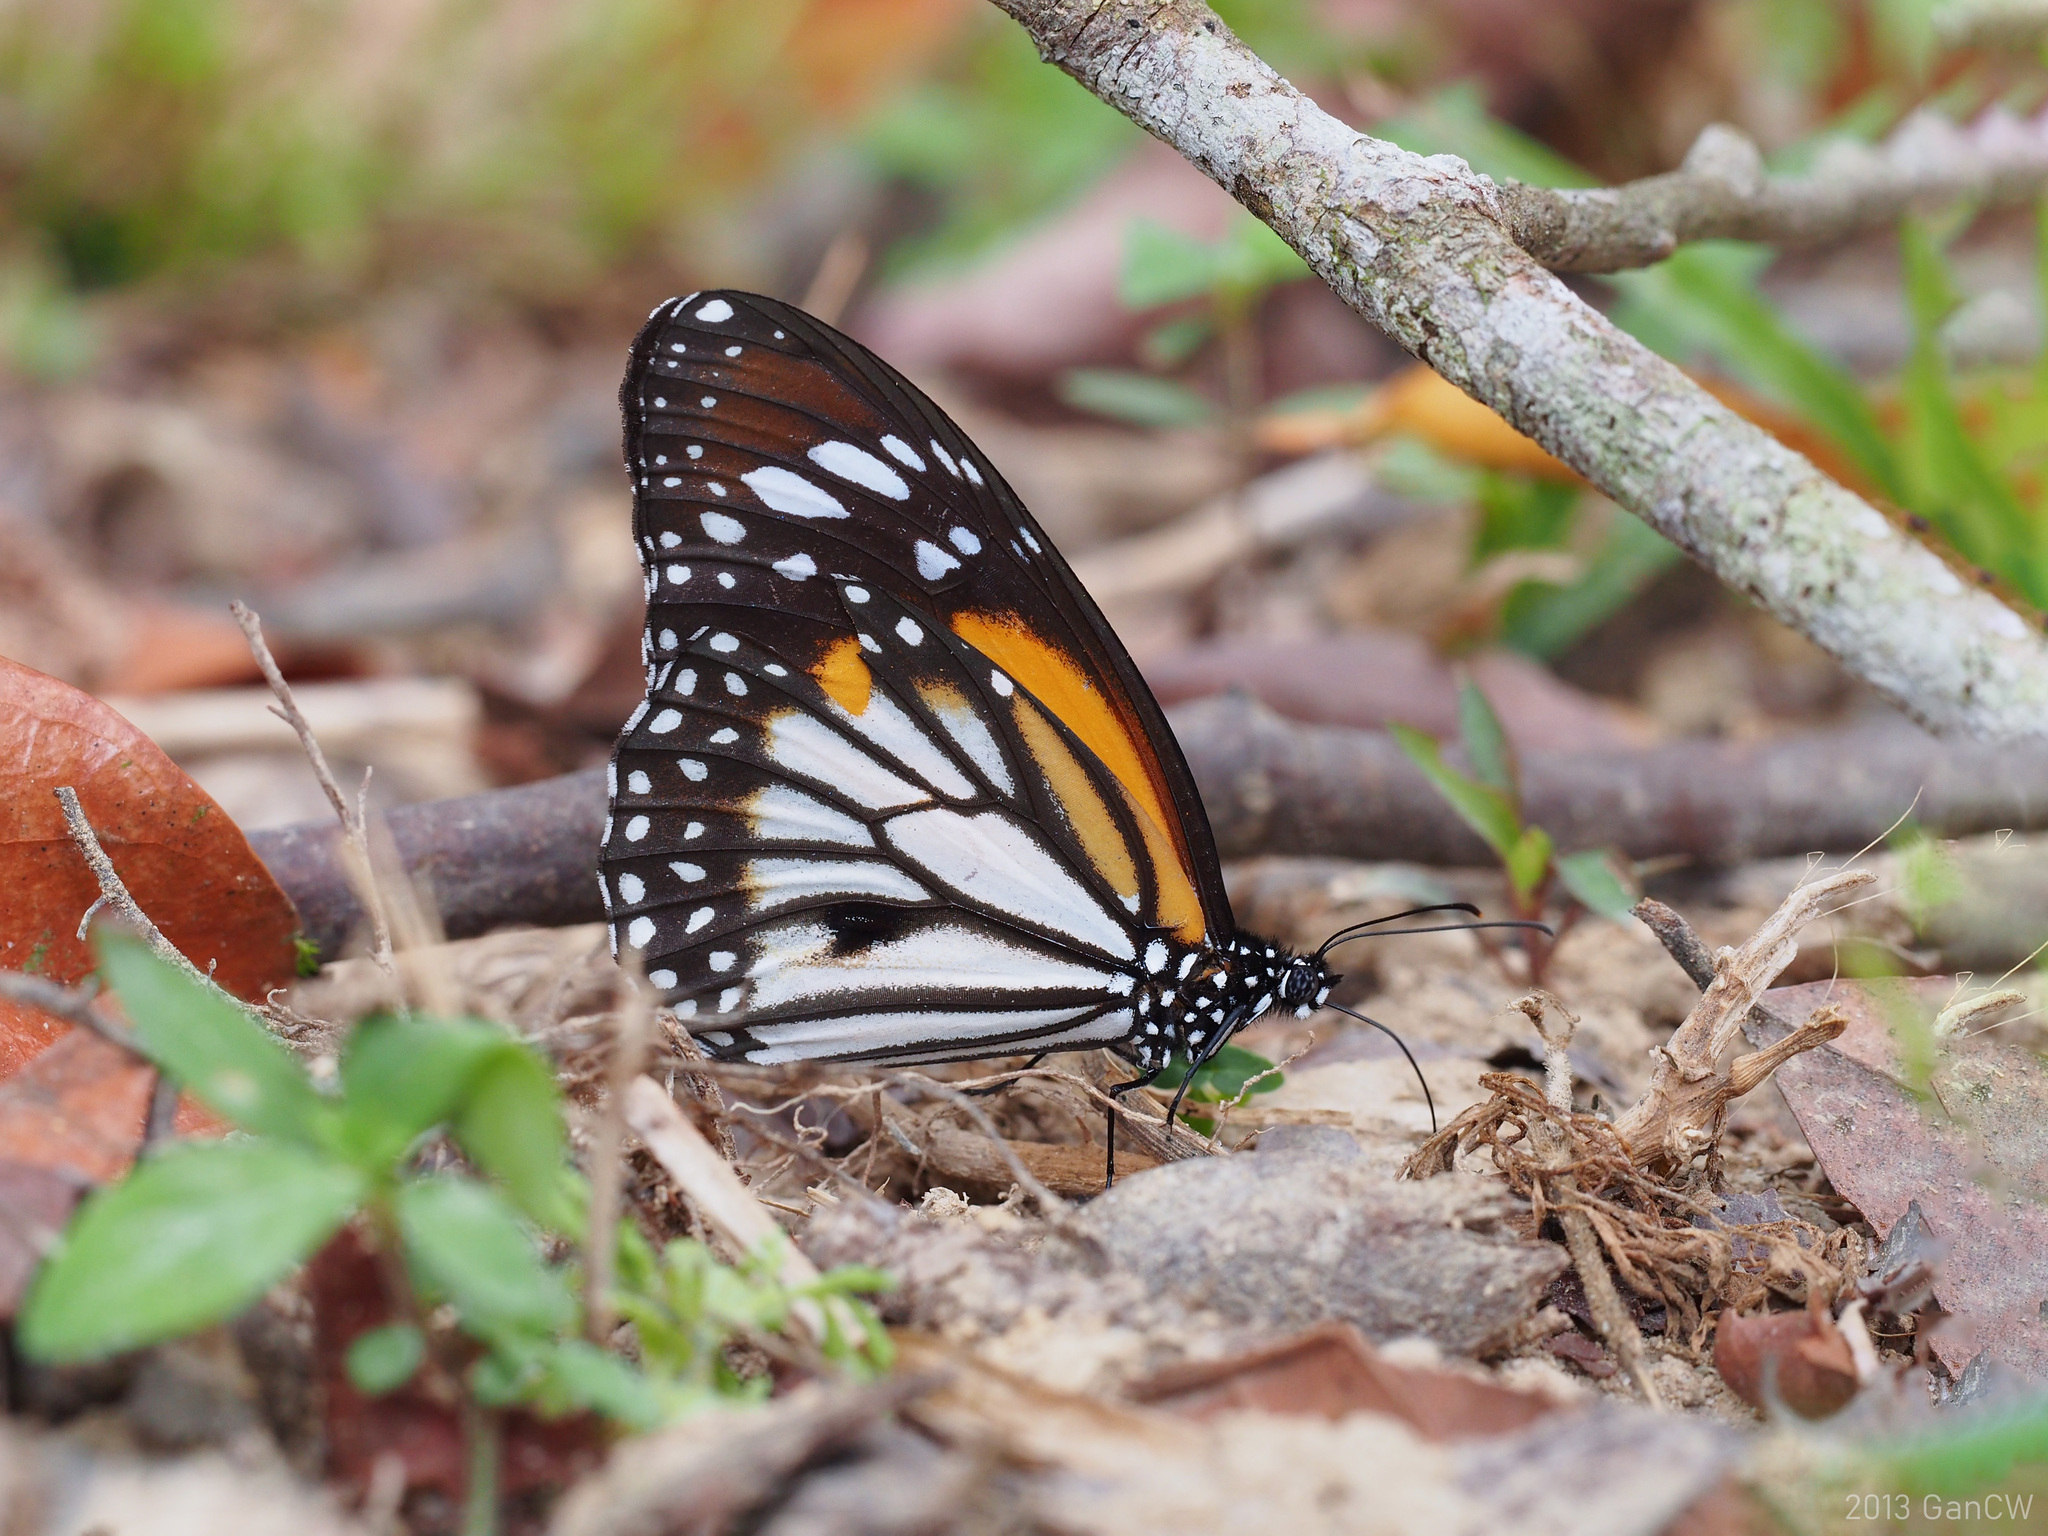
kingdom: Animalia
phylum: Arthropoda
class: Insecta
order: Lepidoptera
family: Nymphalidae
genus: Danaus
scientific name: Danaus melanippus
